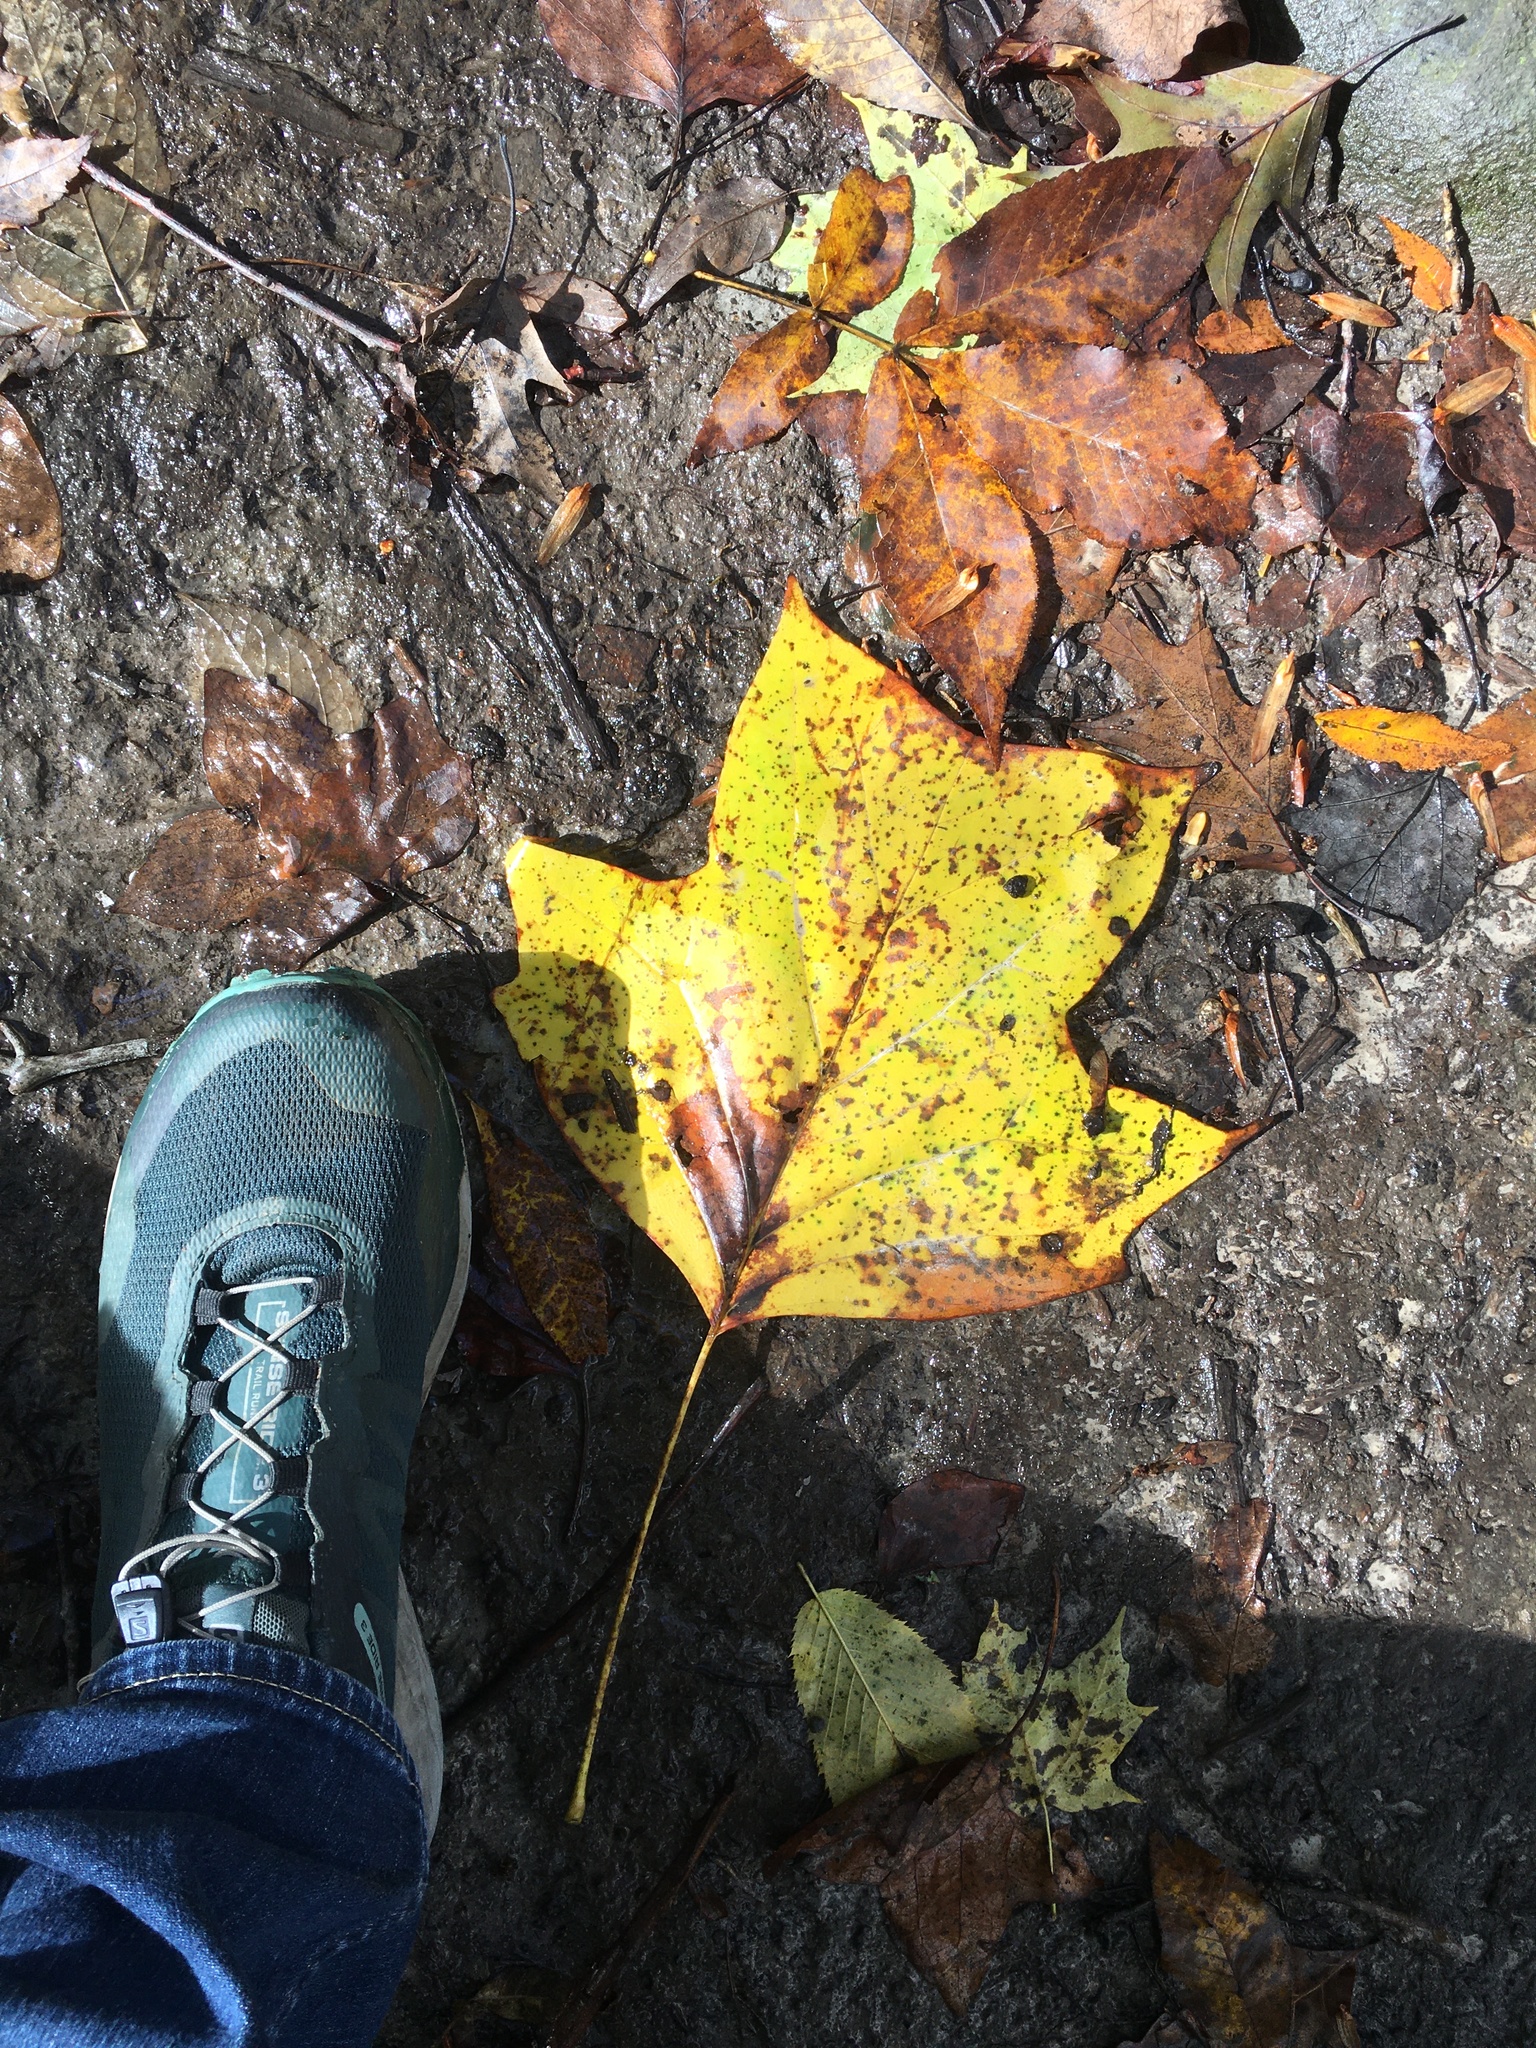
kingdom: Plantae
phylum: Tracheophyta
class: Magnoliopsida
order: Magnoliales
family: Magnoliaceae
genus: Liriodendron
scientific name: Liriodendron tulipifera
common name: Tulip tree
